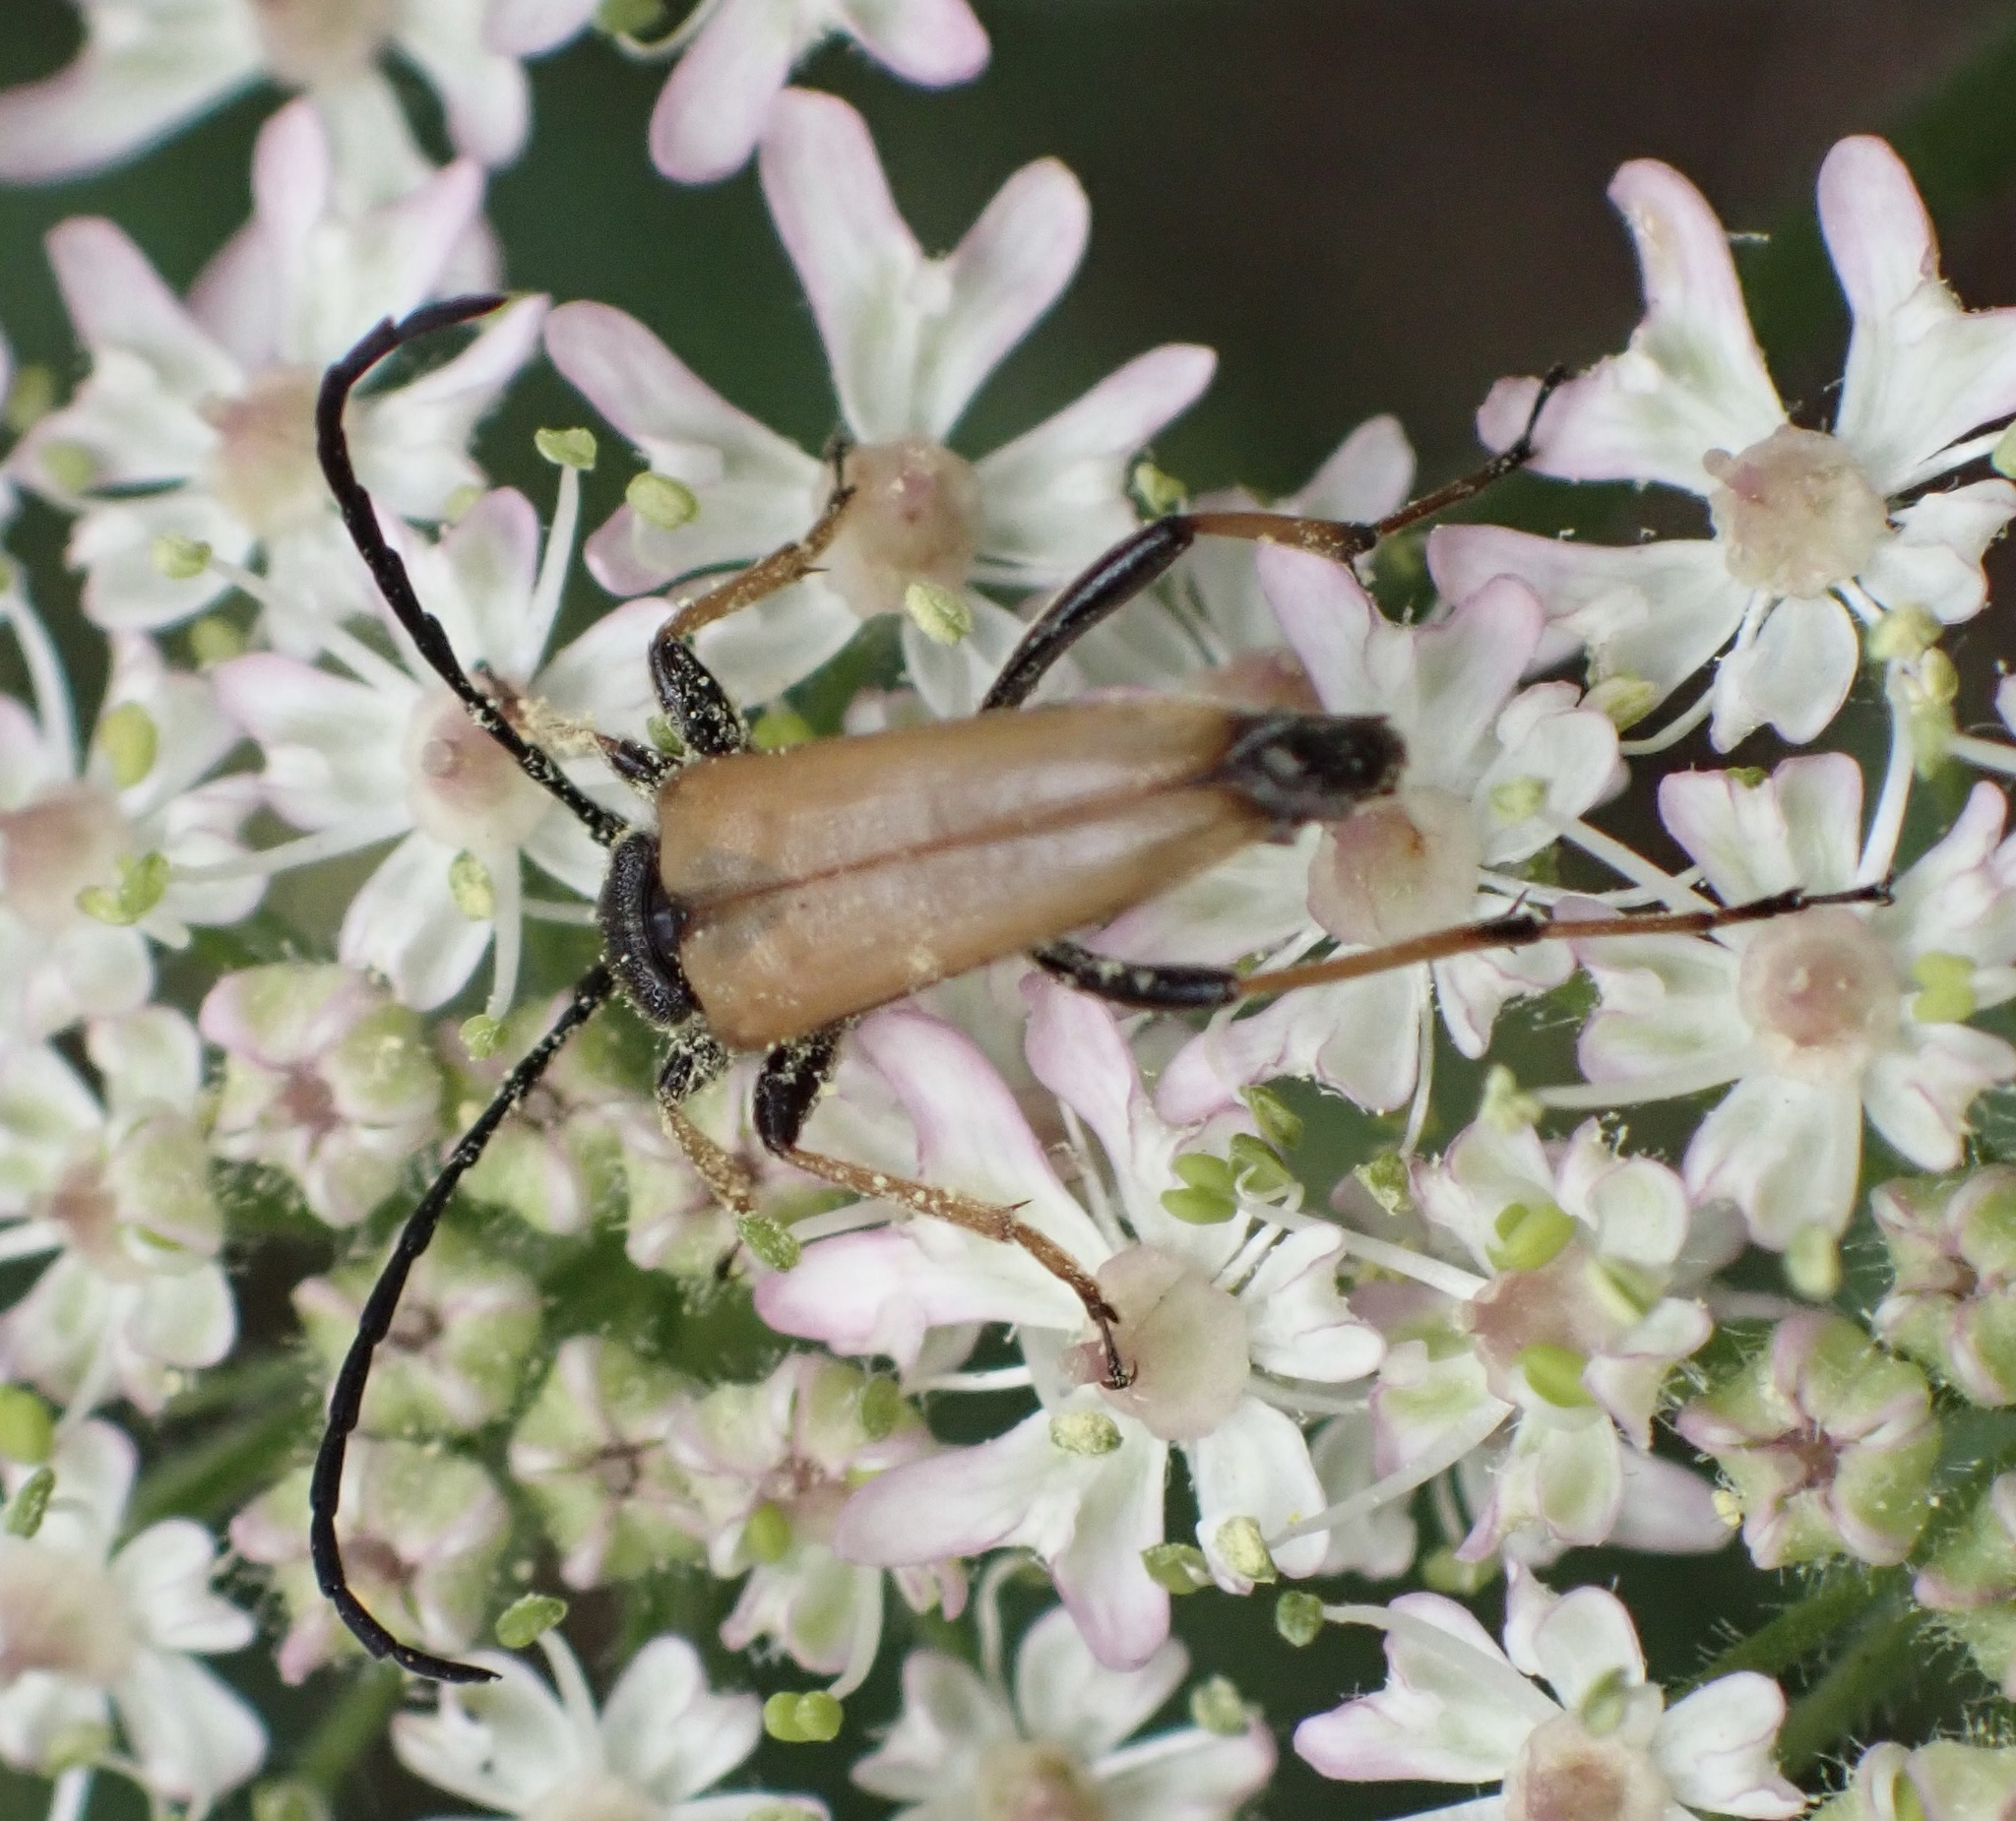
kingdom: Animalia
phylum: Arthropoda
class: Insecta
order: Coleoptera
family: Cerambycidae
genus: Stictoleptura
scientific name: Stictoleptura rubra
